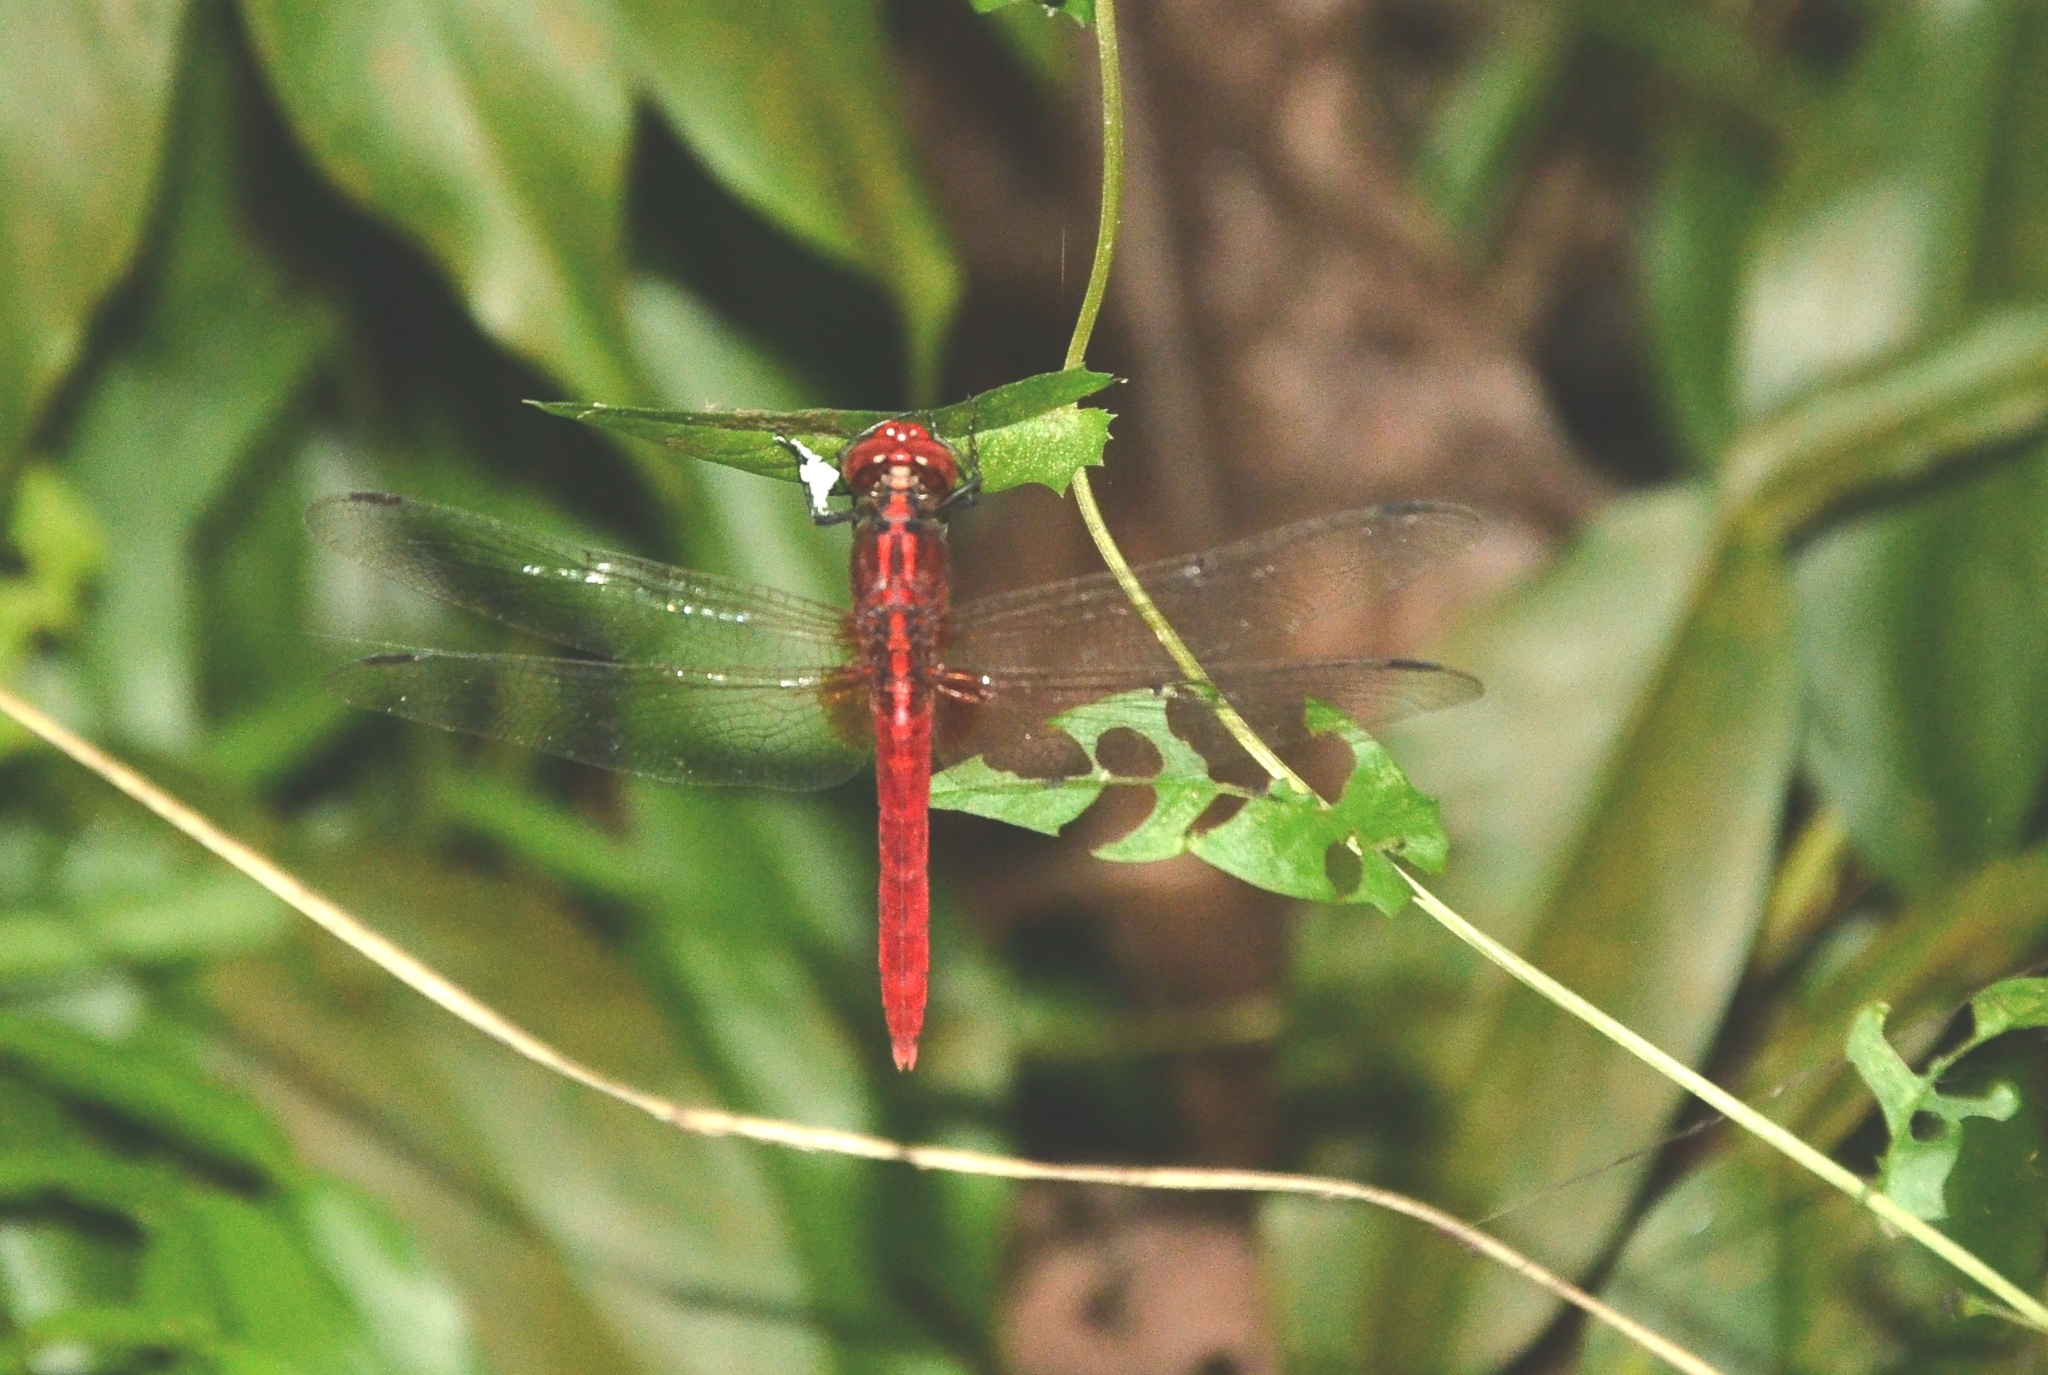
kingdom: Animalia
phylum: Arthropoda
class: Insecta
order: Odonata
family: Libellulidae
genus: Rhodothemis
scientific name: Rhodothemis rufa
